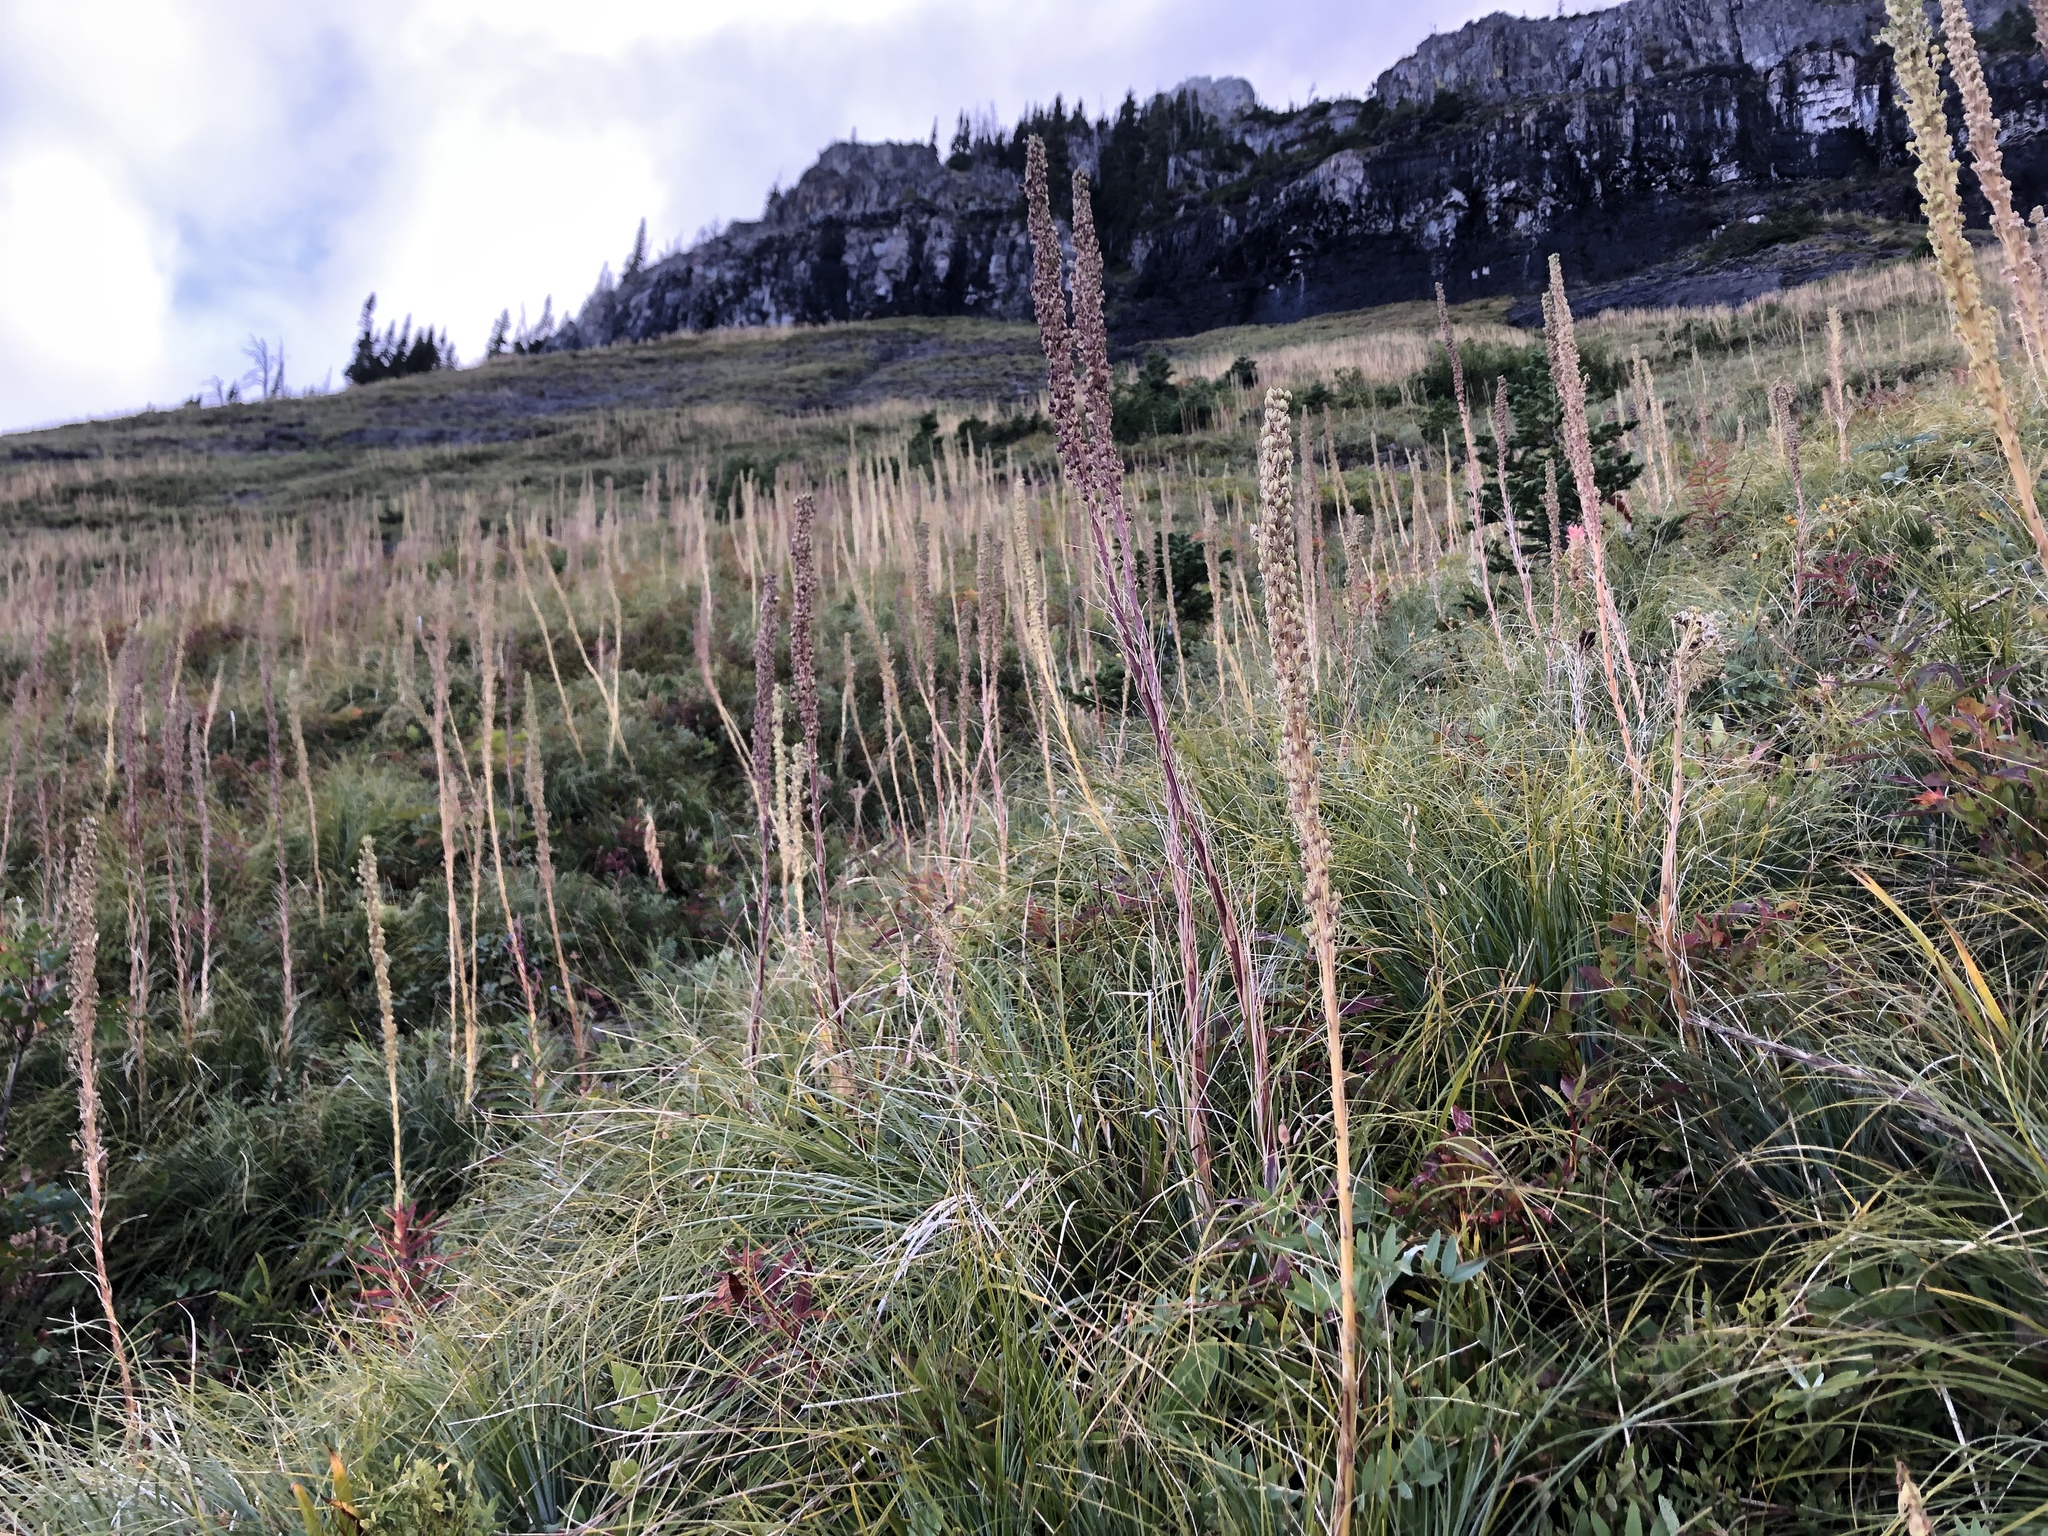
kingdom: Plantae
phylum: Tracheophyta
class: Liliopsida
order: Liliales
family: Melanthiaceae
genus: Xerophyllum
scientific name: Xerophyllum tenax
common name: Bear-grass
